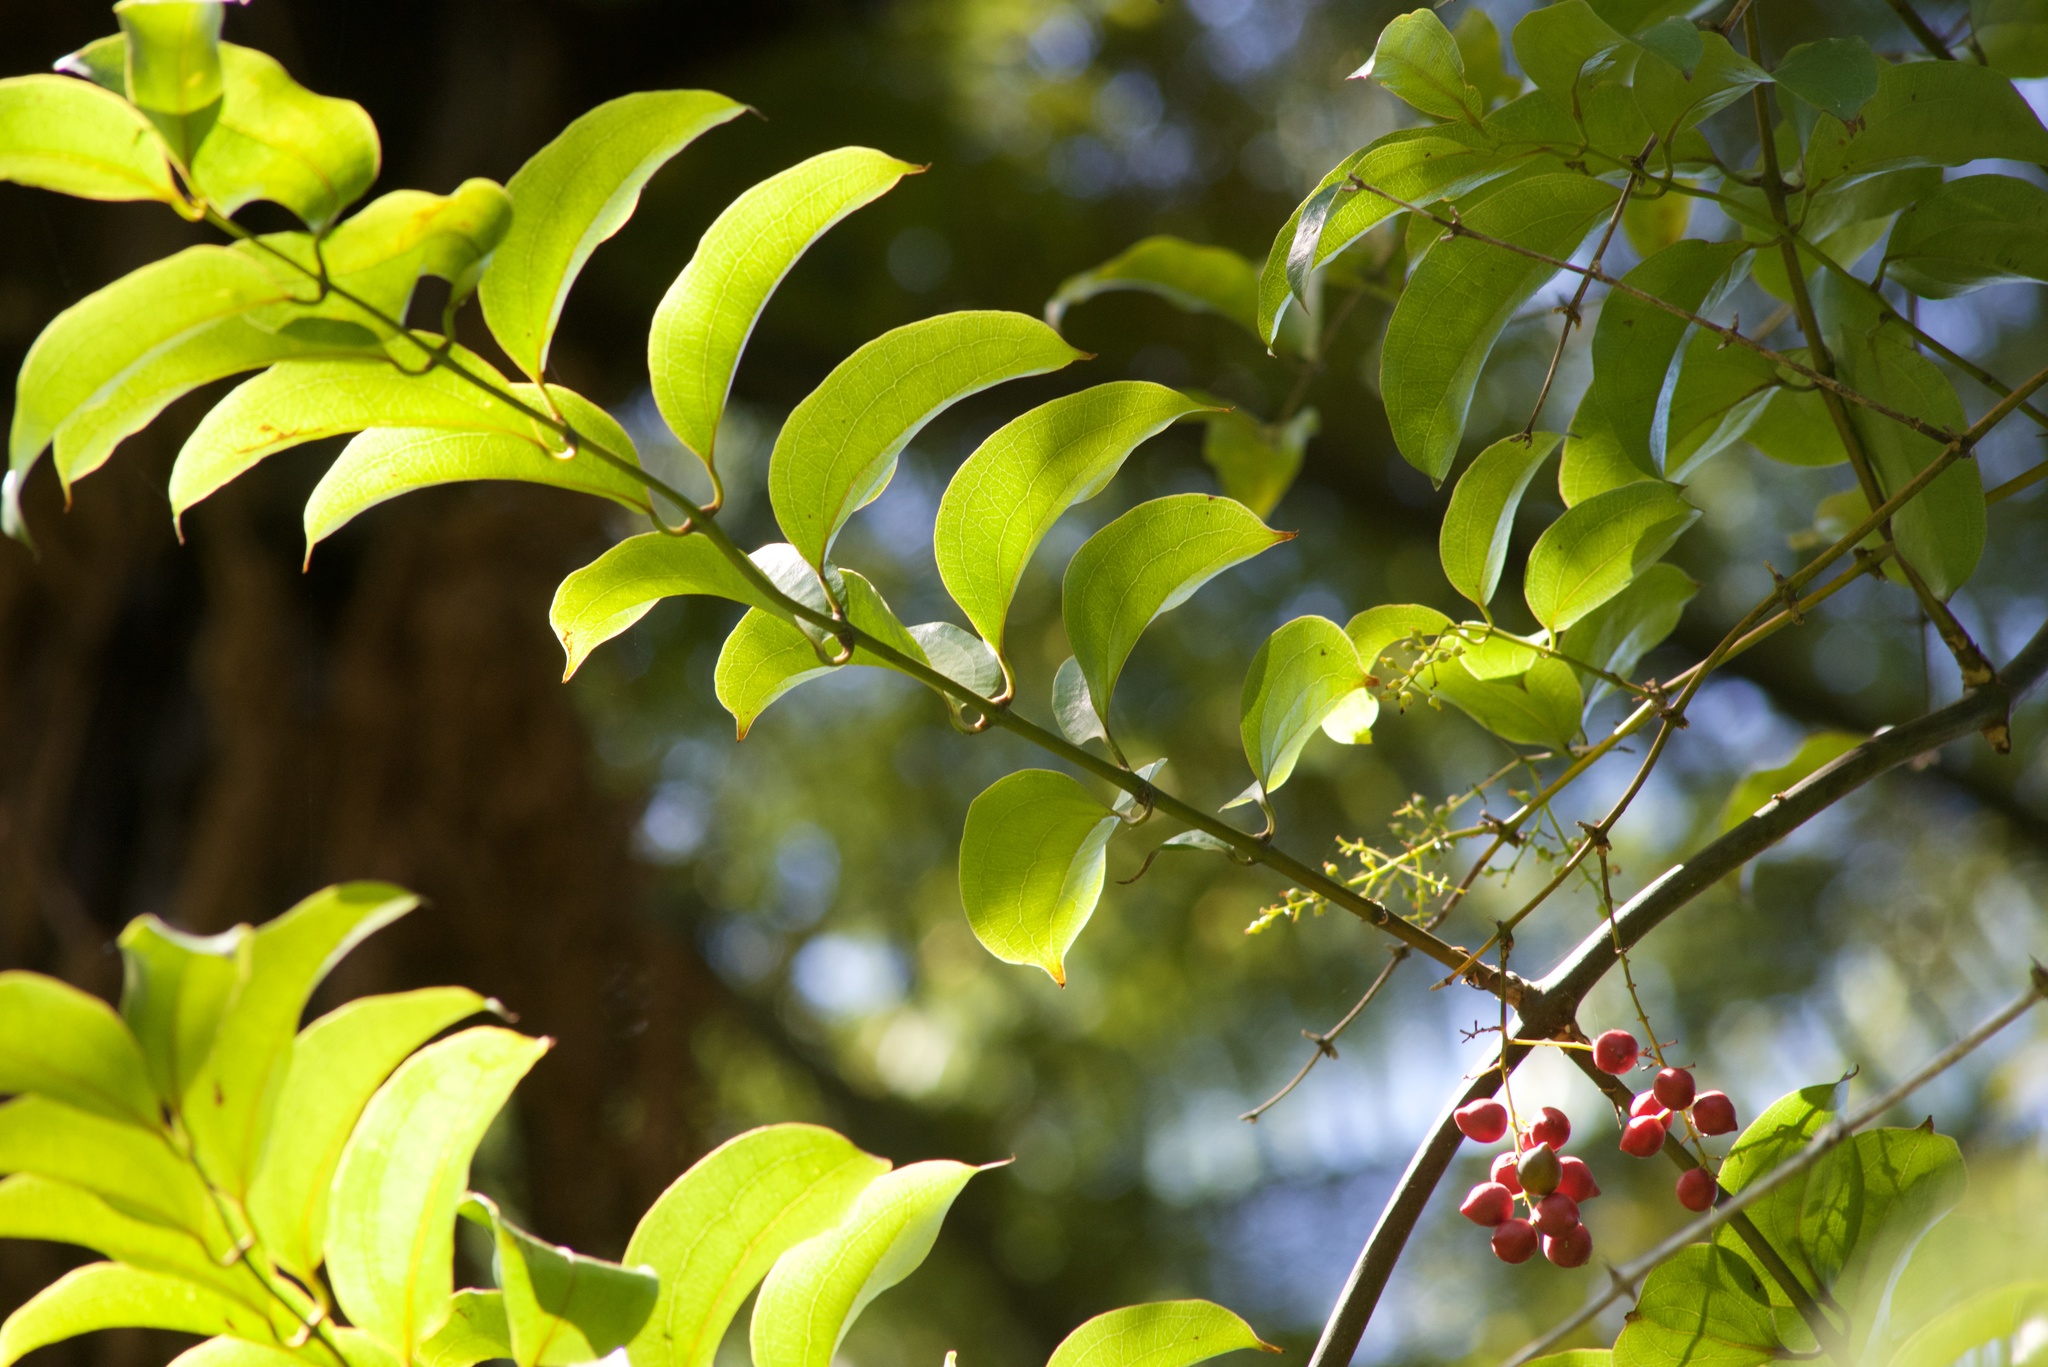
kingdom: Plantae
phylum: Tracheophyta
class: Liliopsida
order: Liliales
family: Ripogonaceae
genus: Ripogonum
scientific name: Ripogonum scandens
